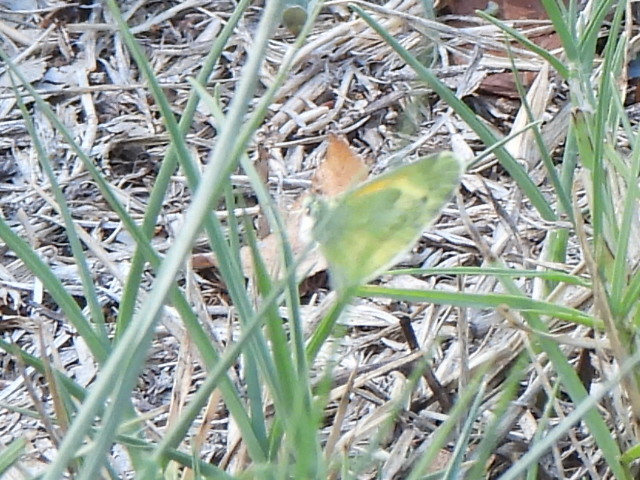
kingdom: Animalia
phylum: Arthropoda
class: Insecta
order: Lepidoptera
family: Pieridae
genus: Nathalis
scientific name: Nathalis iole
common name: Dainty sulphur
